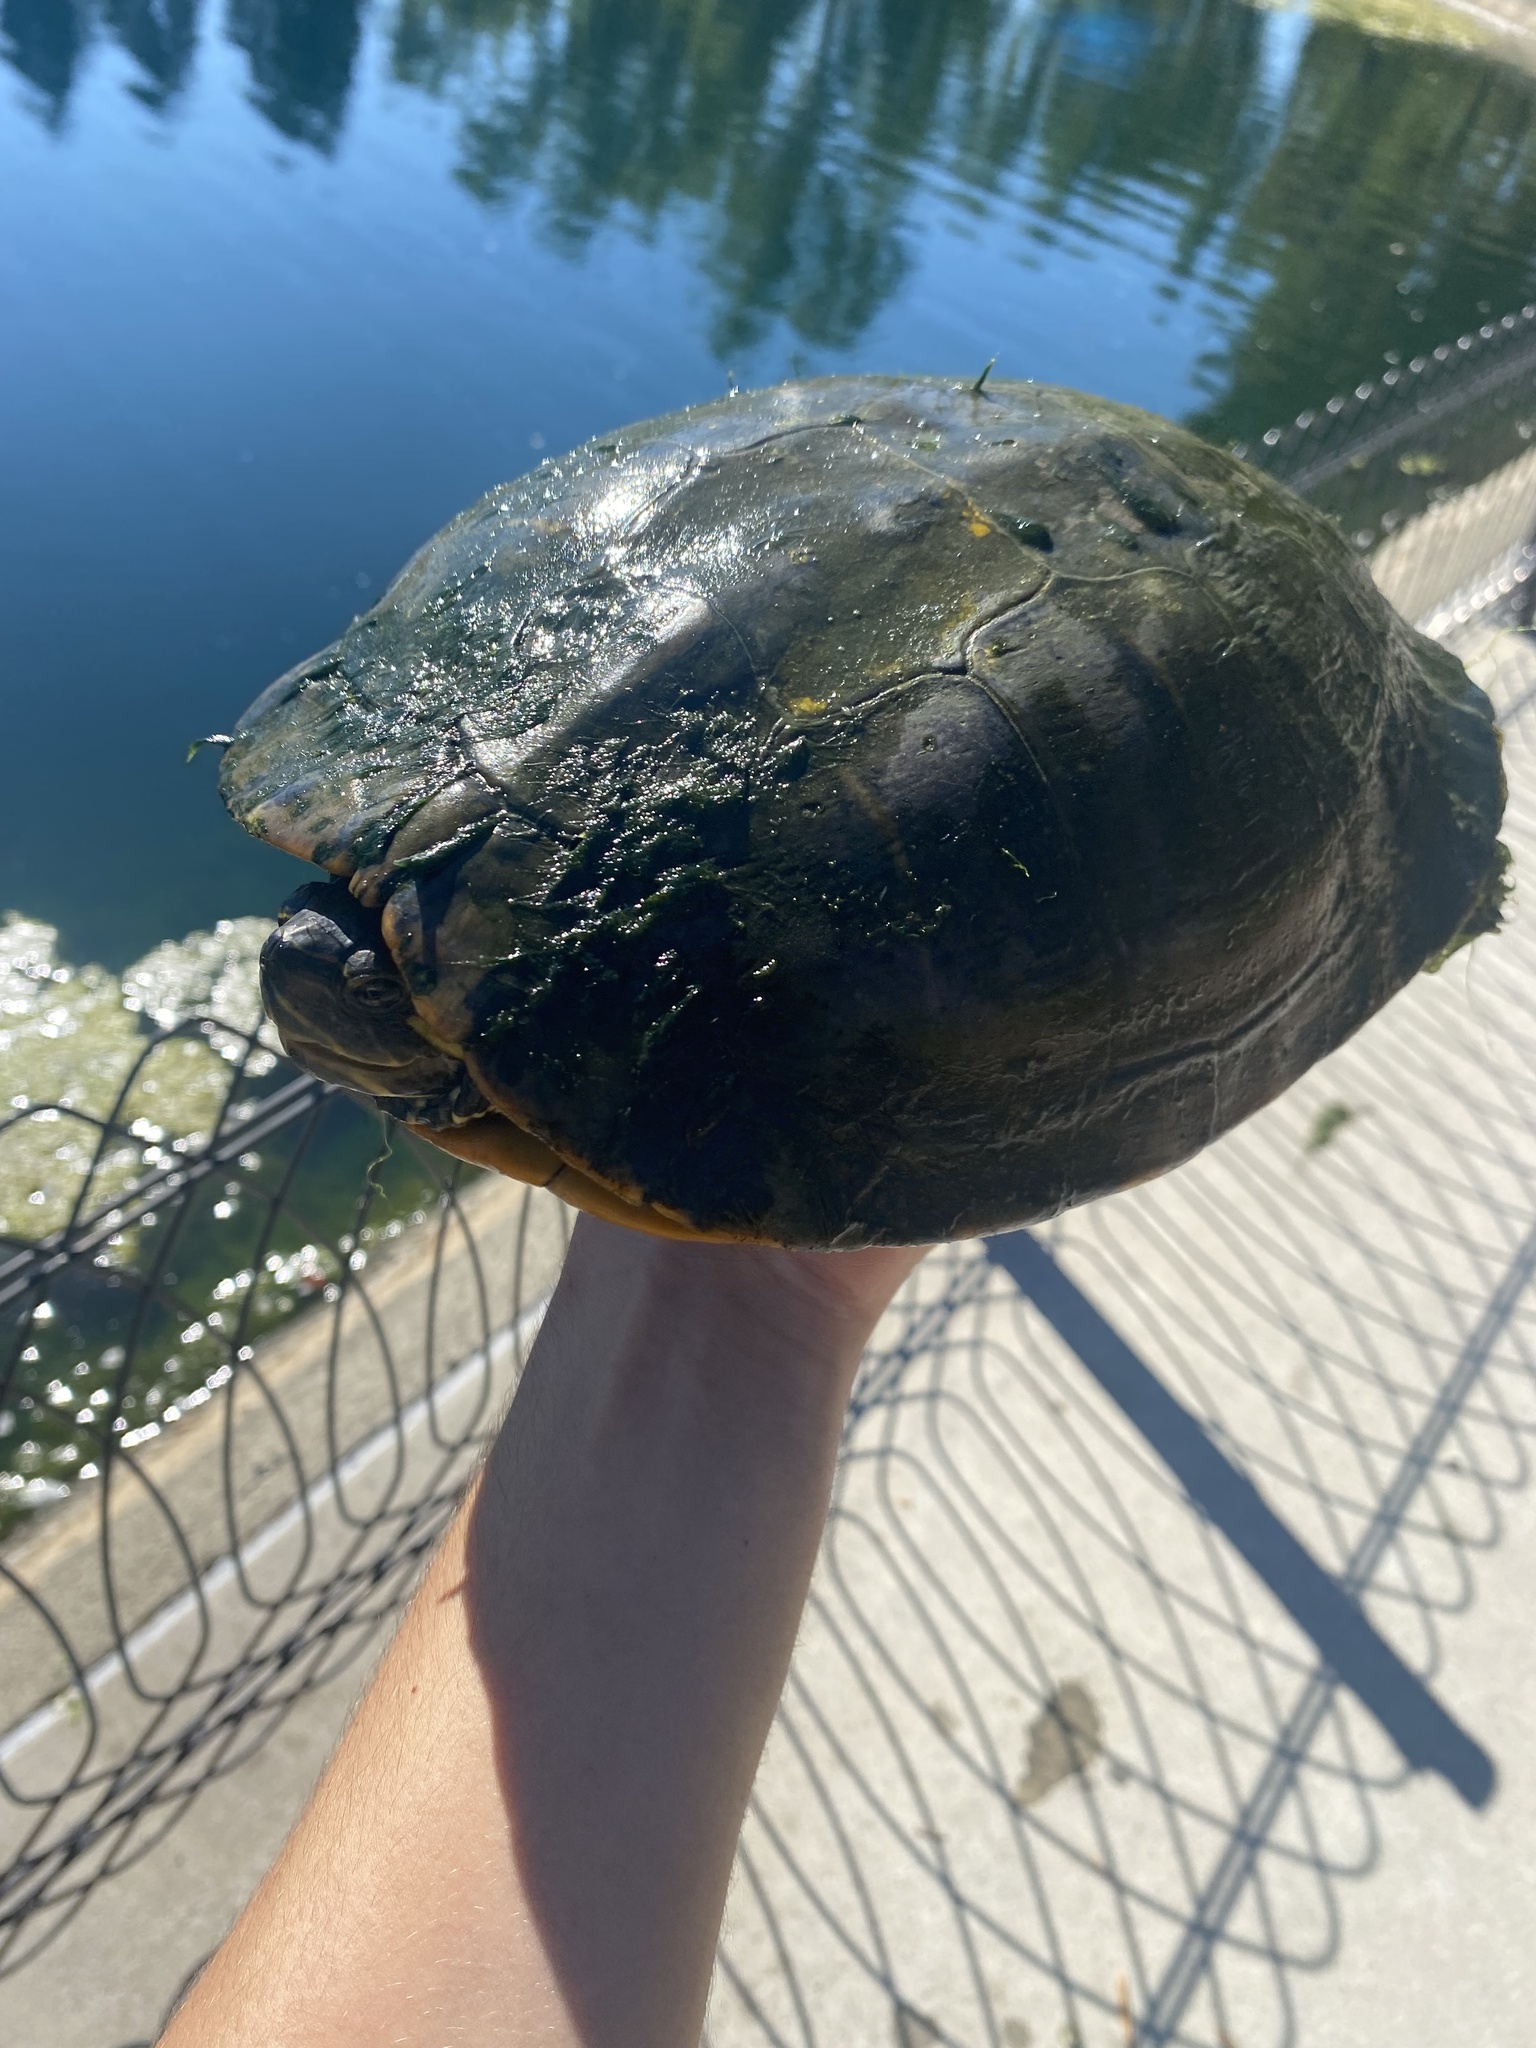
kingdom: Animalia
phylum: Chordata
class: Testudines
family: Emydidae
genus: Trachemys
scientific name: Trachemys scripta
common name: Slider
